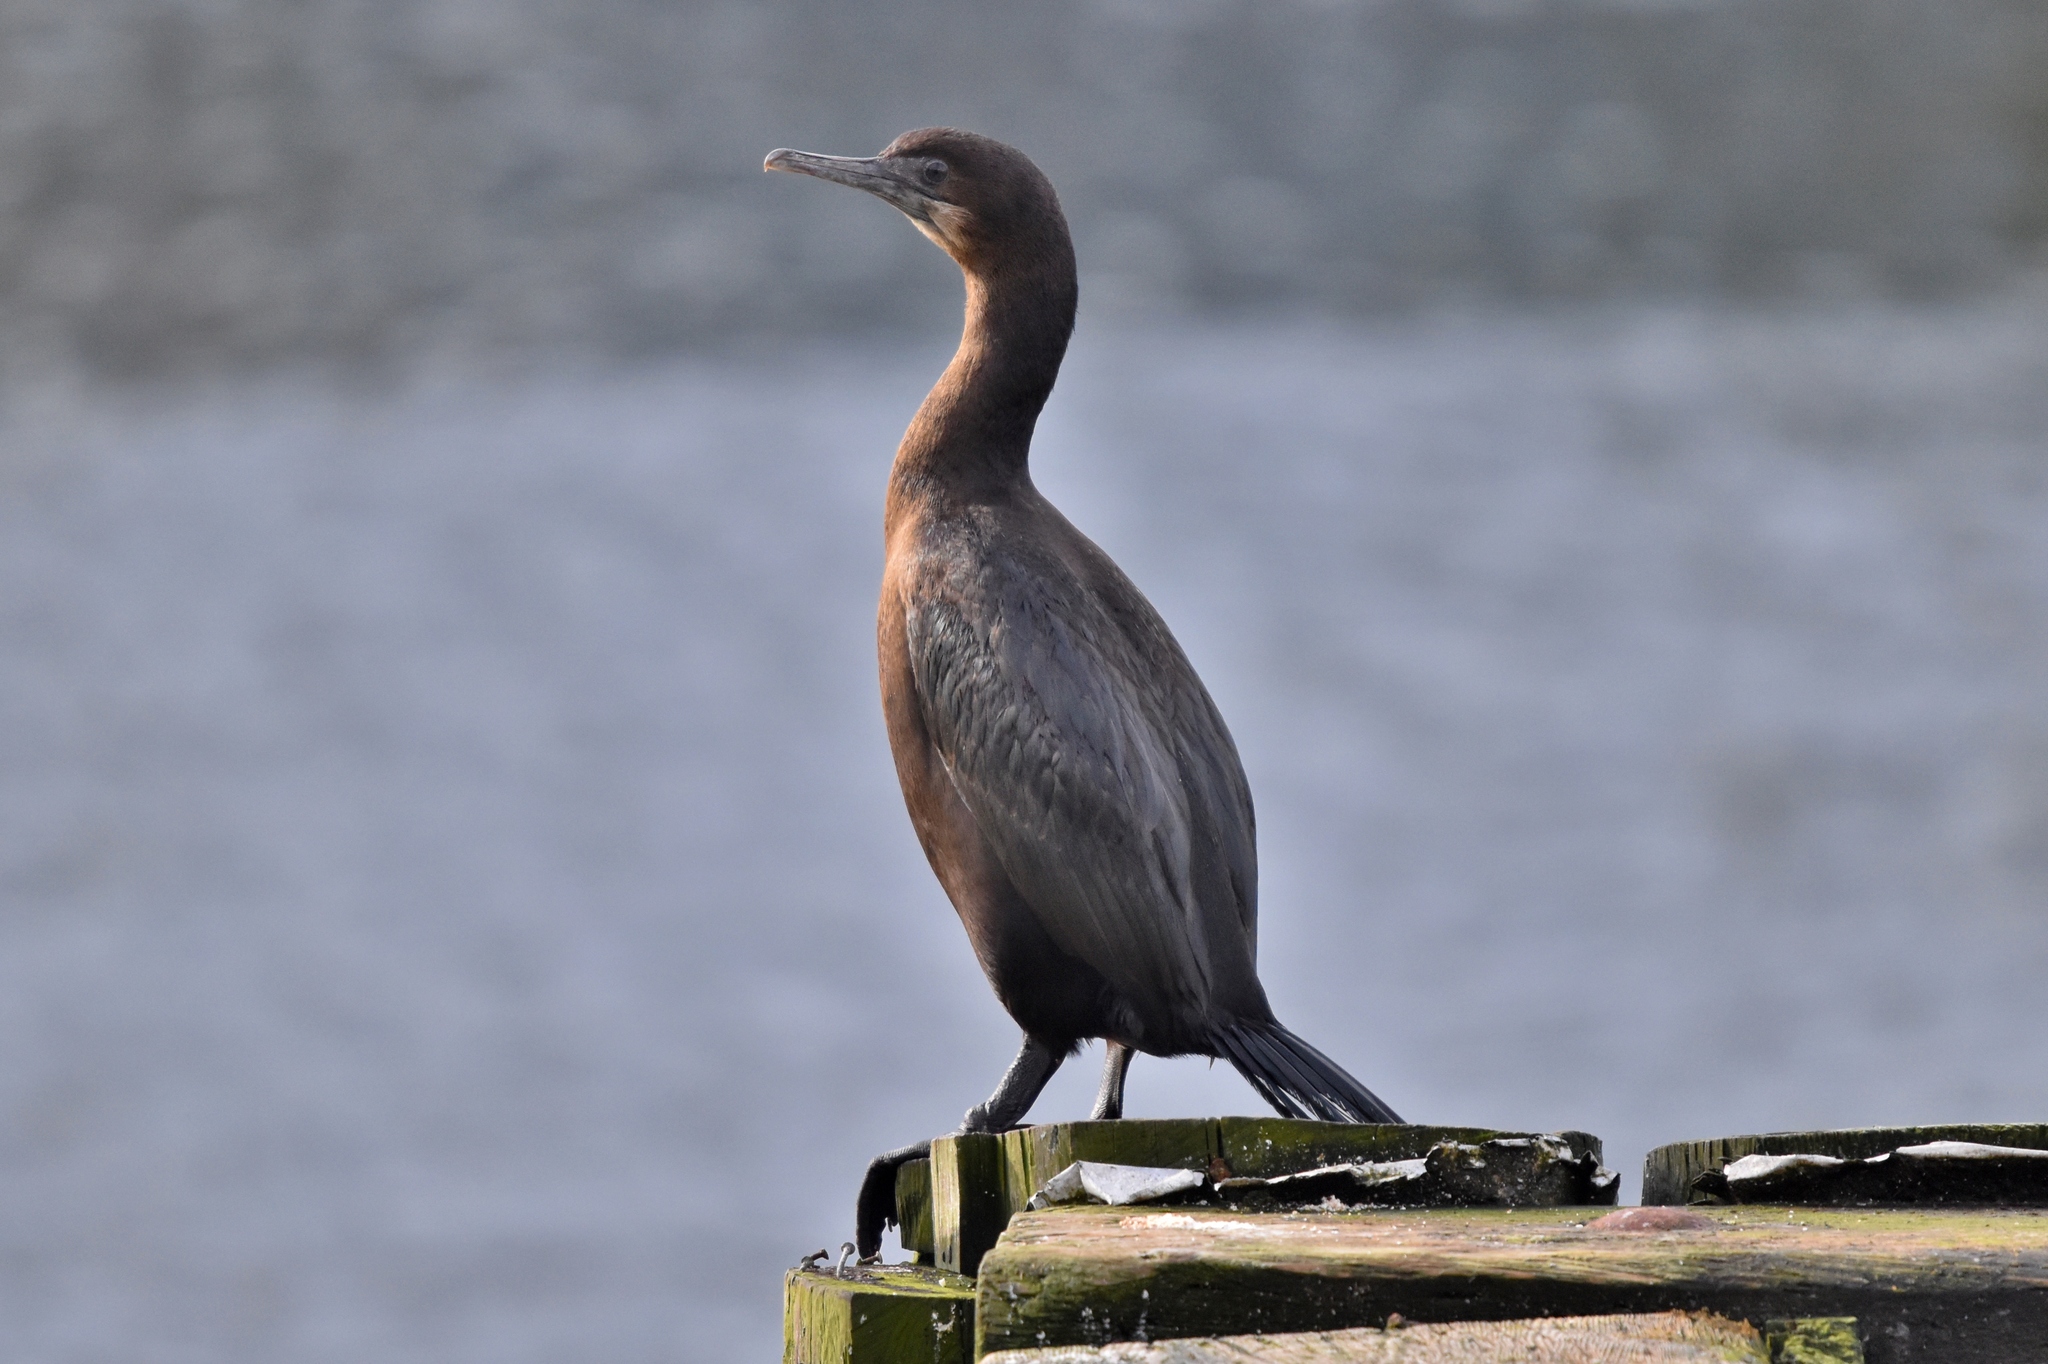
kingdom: Animalia
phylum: Chordata
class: Aves
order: Suliformes
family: Phalacrocoracidae
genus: Urile
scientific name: Urile penicillatus
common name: Brandt's cormorant
